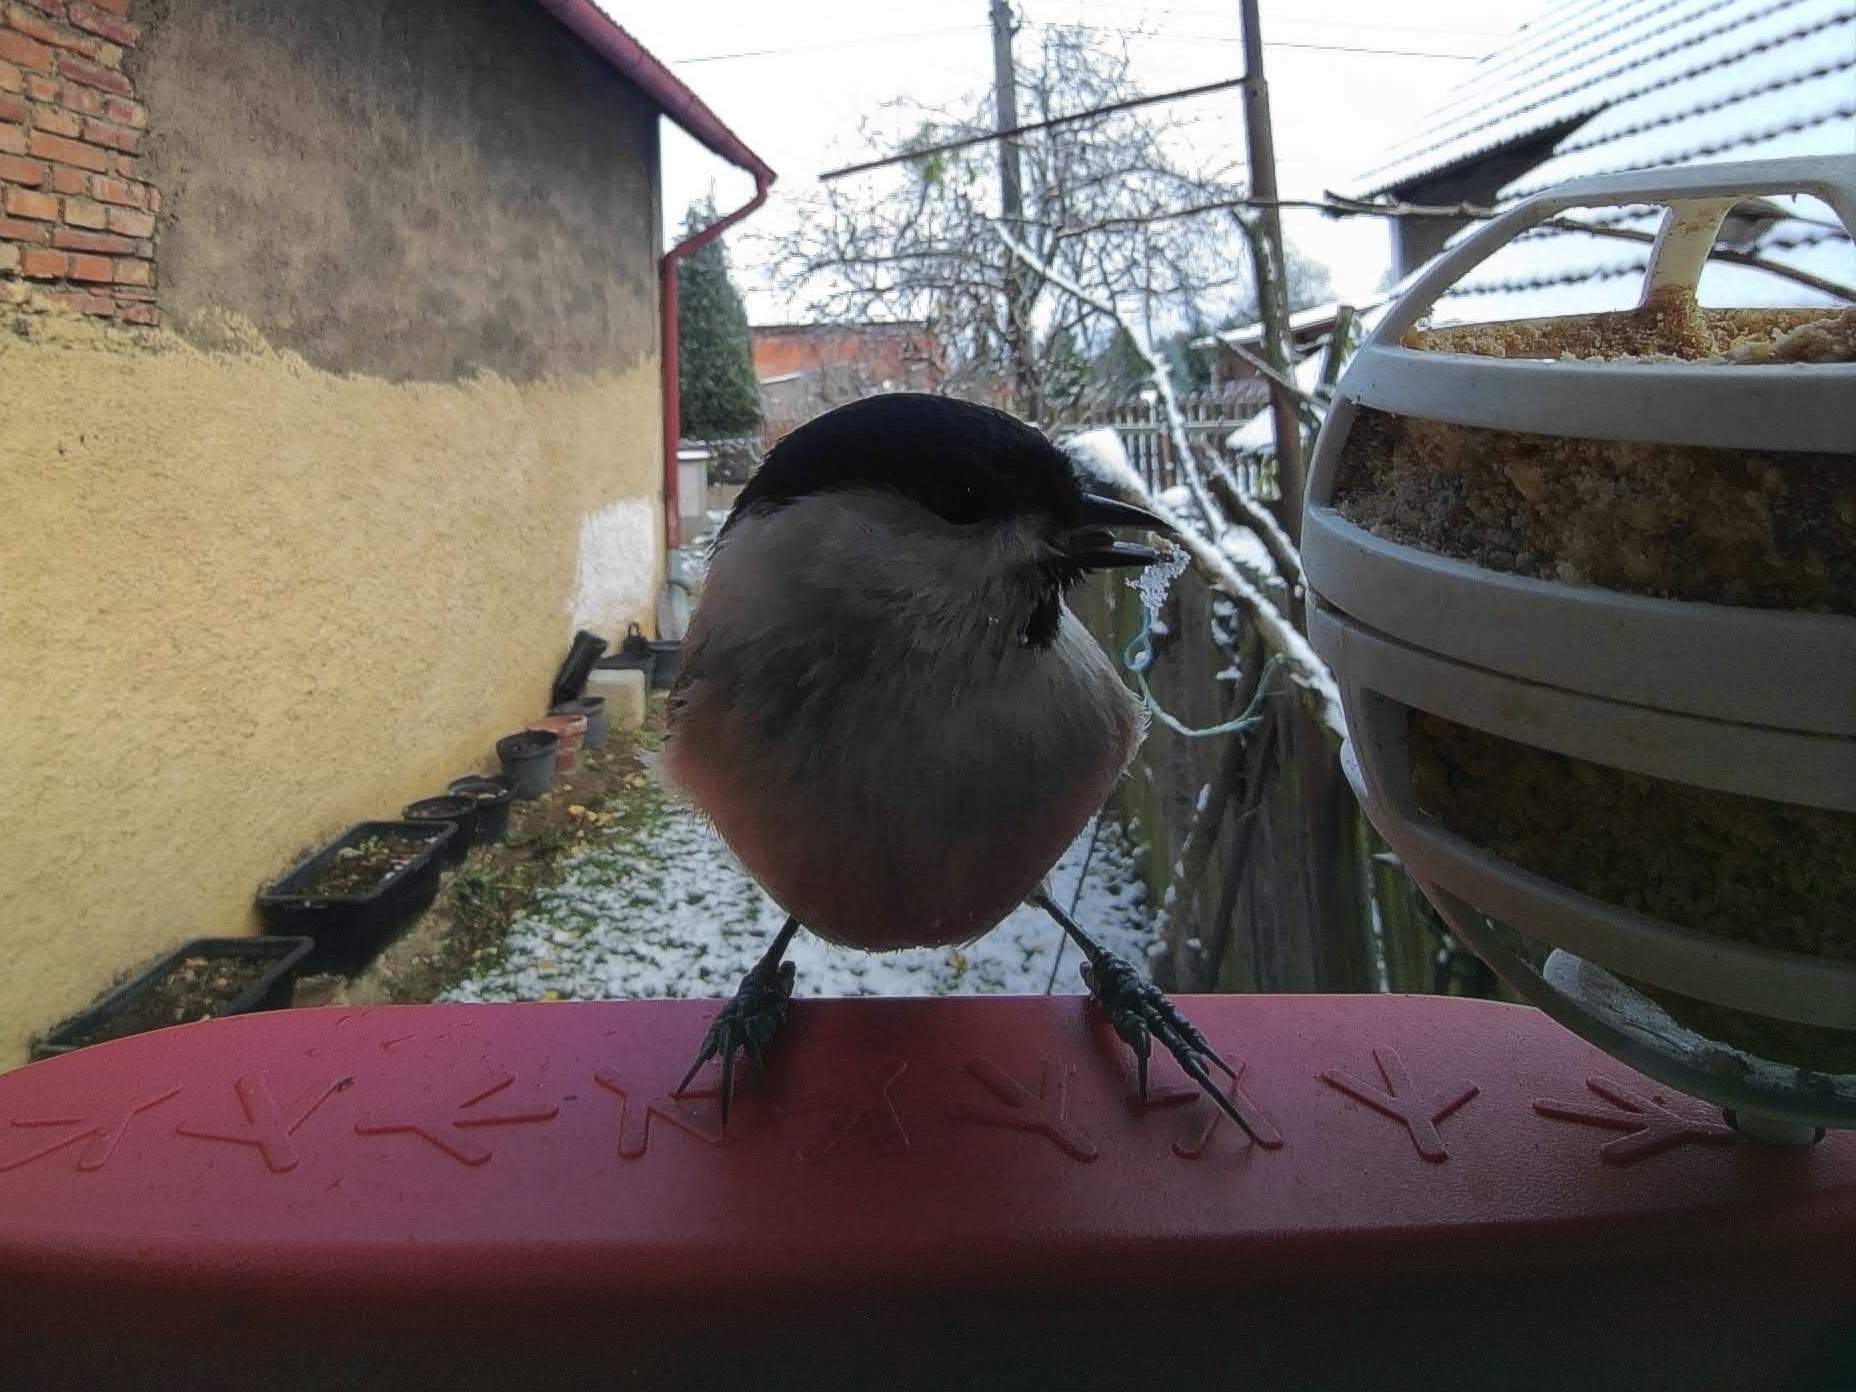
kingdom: Animalia
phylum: Chordata
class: Aves
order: Passeriformes
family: Paridae
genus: Poecile
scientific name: Poecile palustris
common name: Marsh tit
